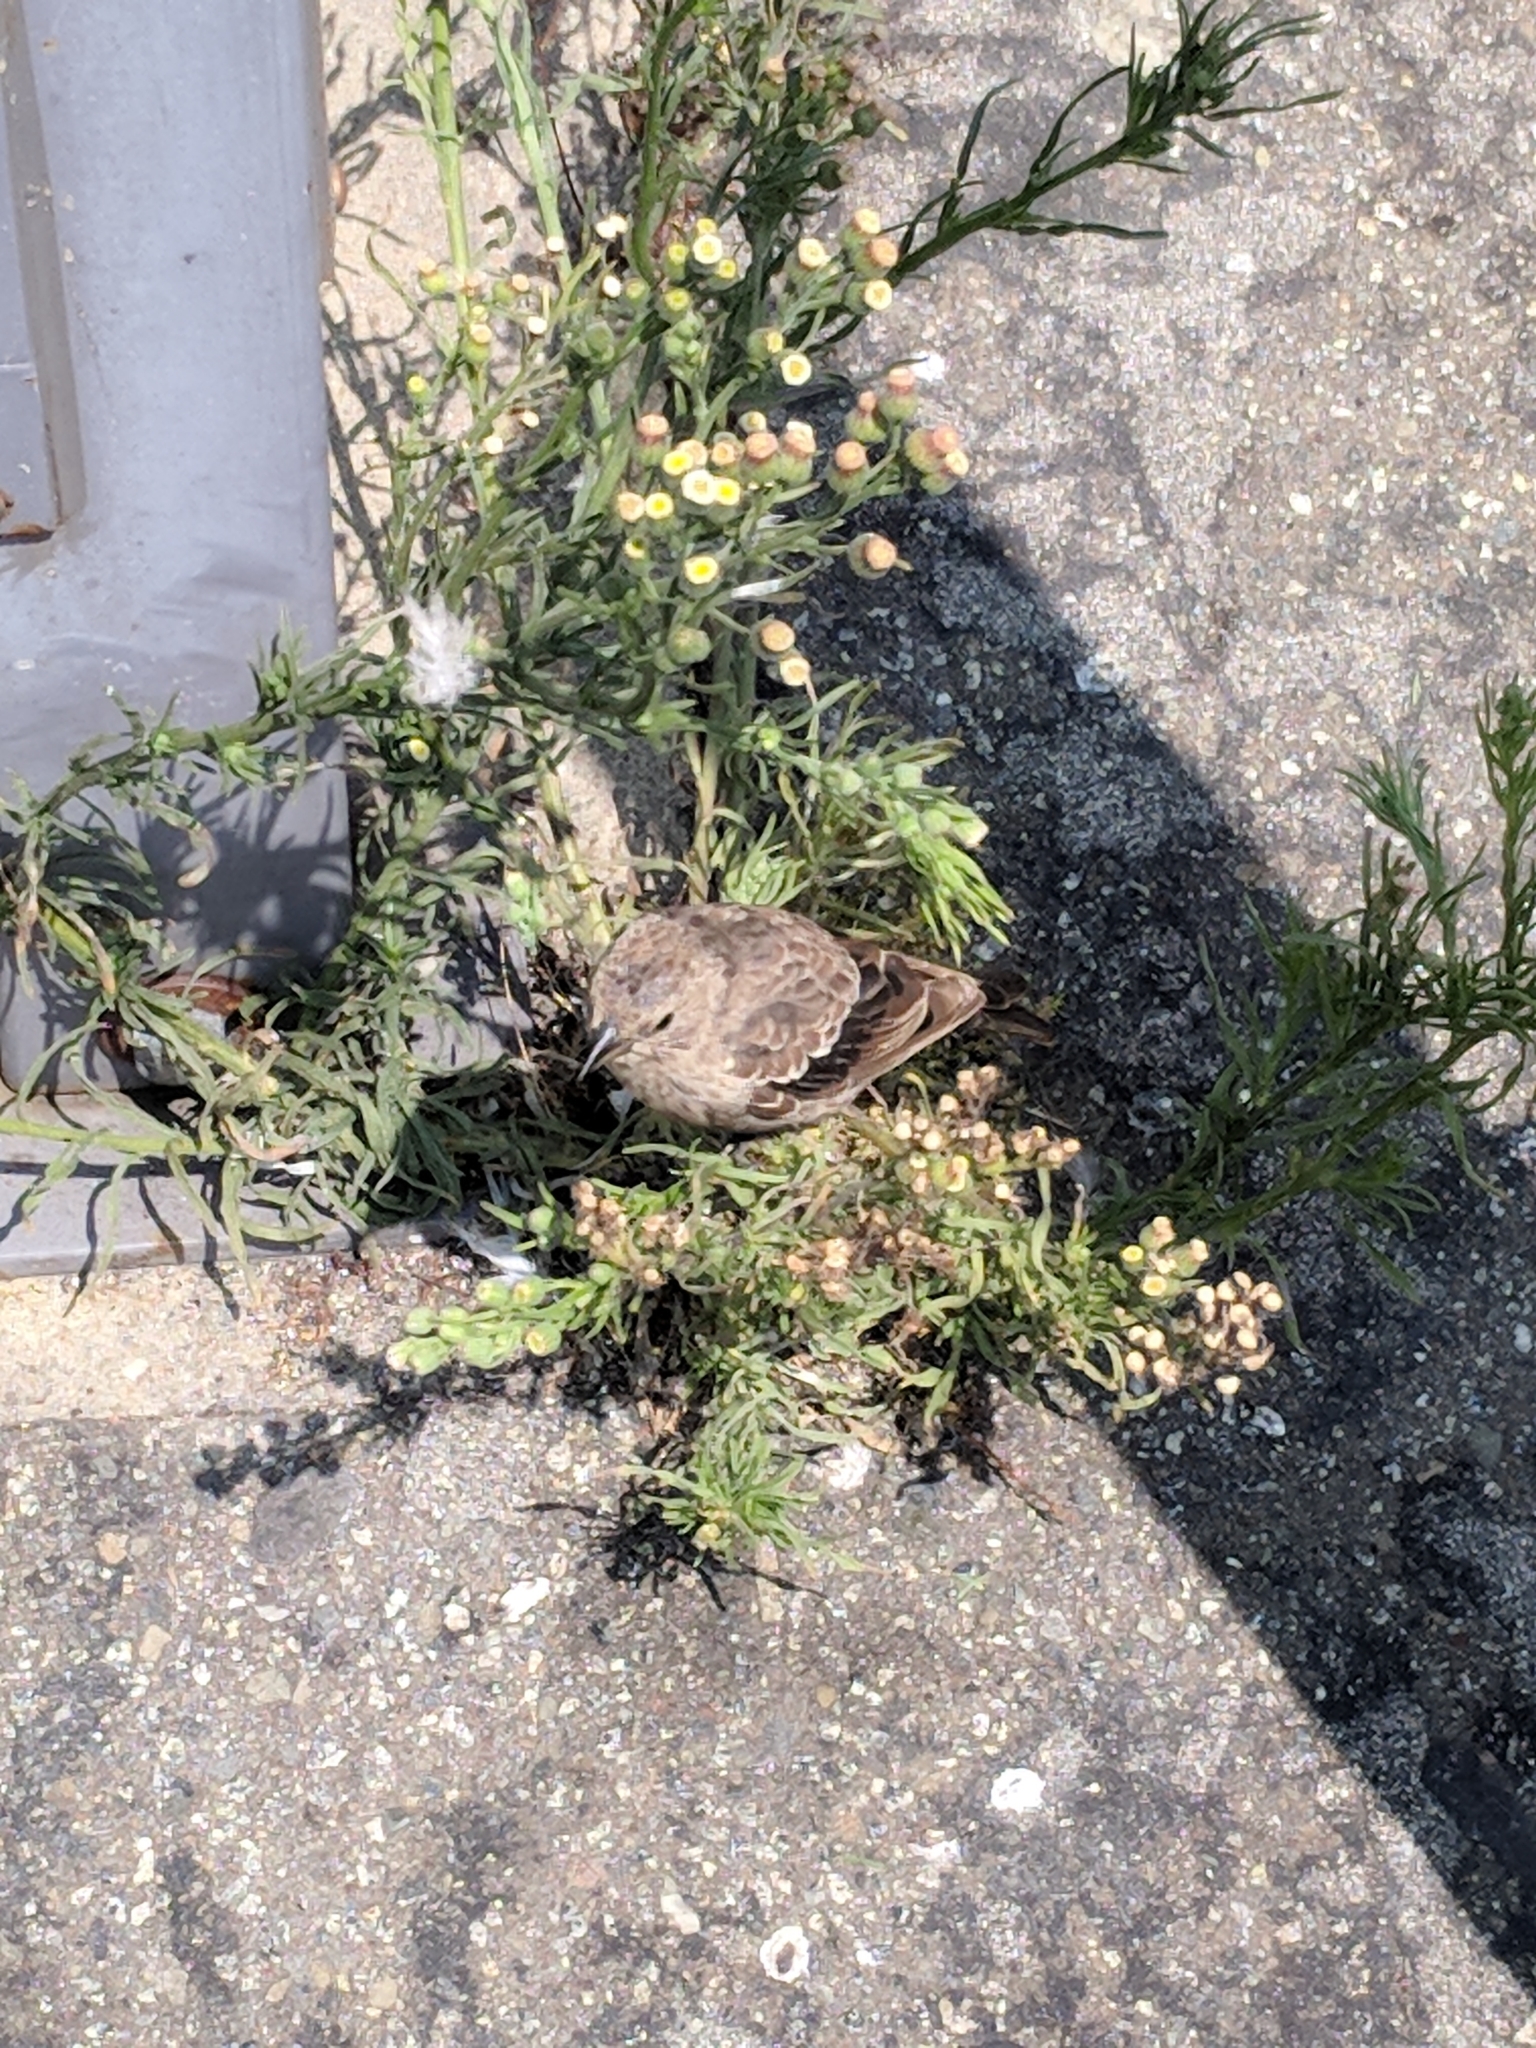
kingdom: Animalia
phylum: Chordata
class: Aves
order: Passeriformes
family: Icteridae
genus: Molothrus
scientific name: Molothrus ater
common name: Brown-headed cowbird
